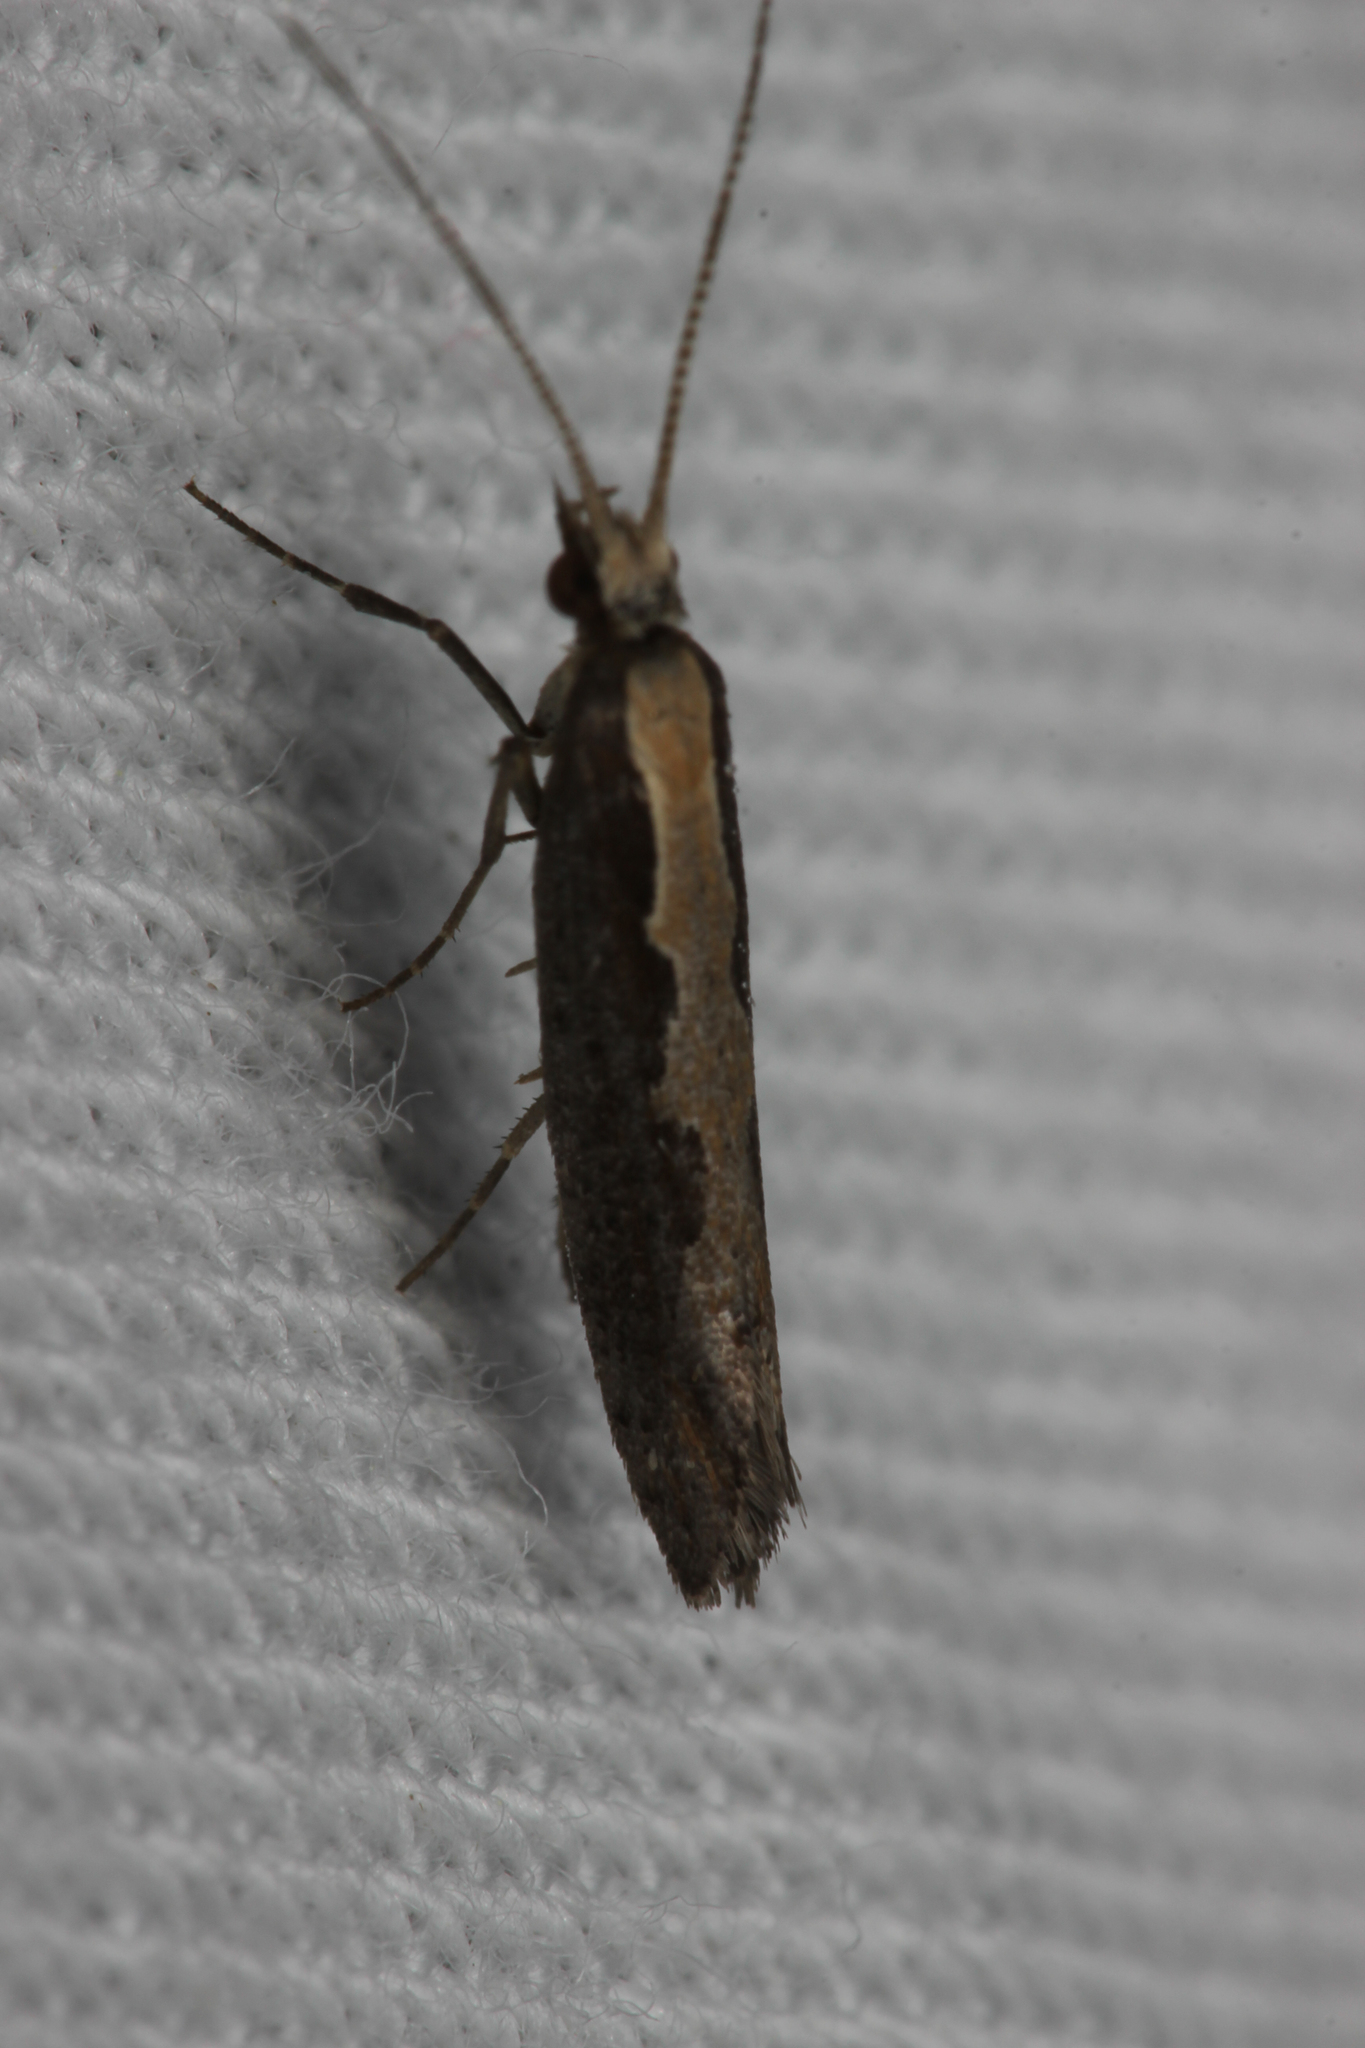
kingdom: Animalia
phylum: Arthropoda
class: Insecta
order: Lepidoptera
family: Plutellidae
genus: Plutella
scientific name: Plutella xylostella
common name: Diamond-back moth
